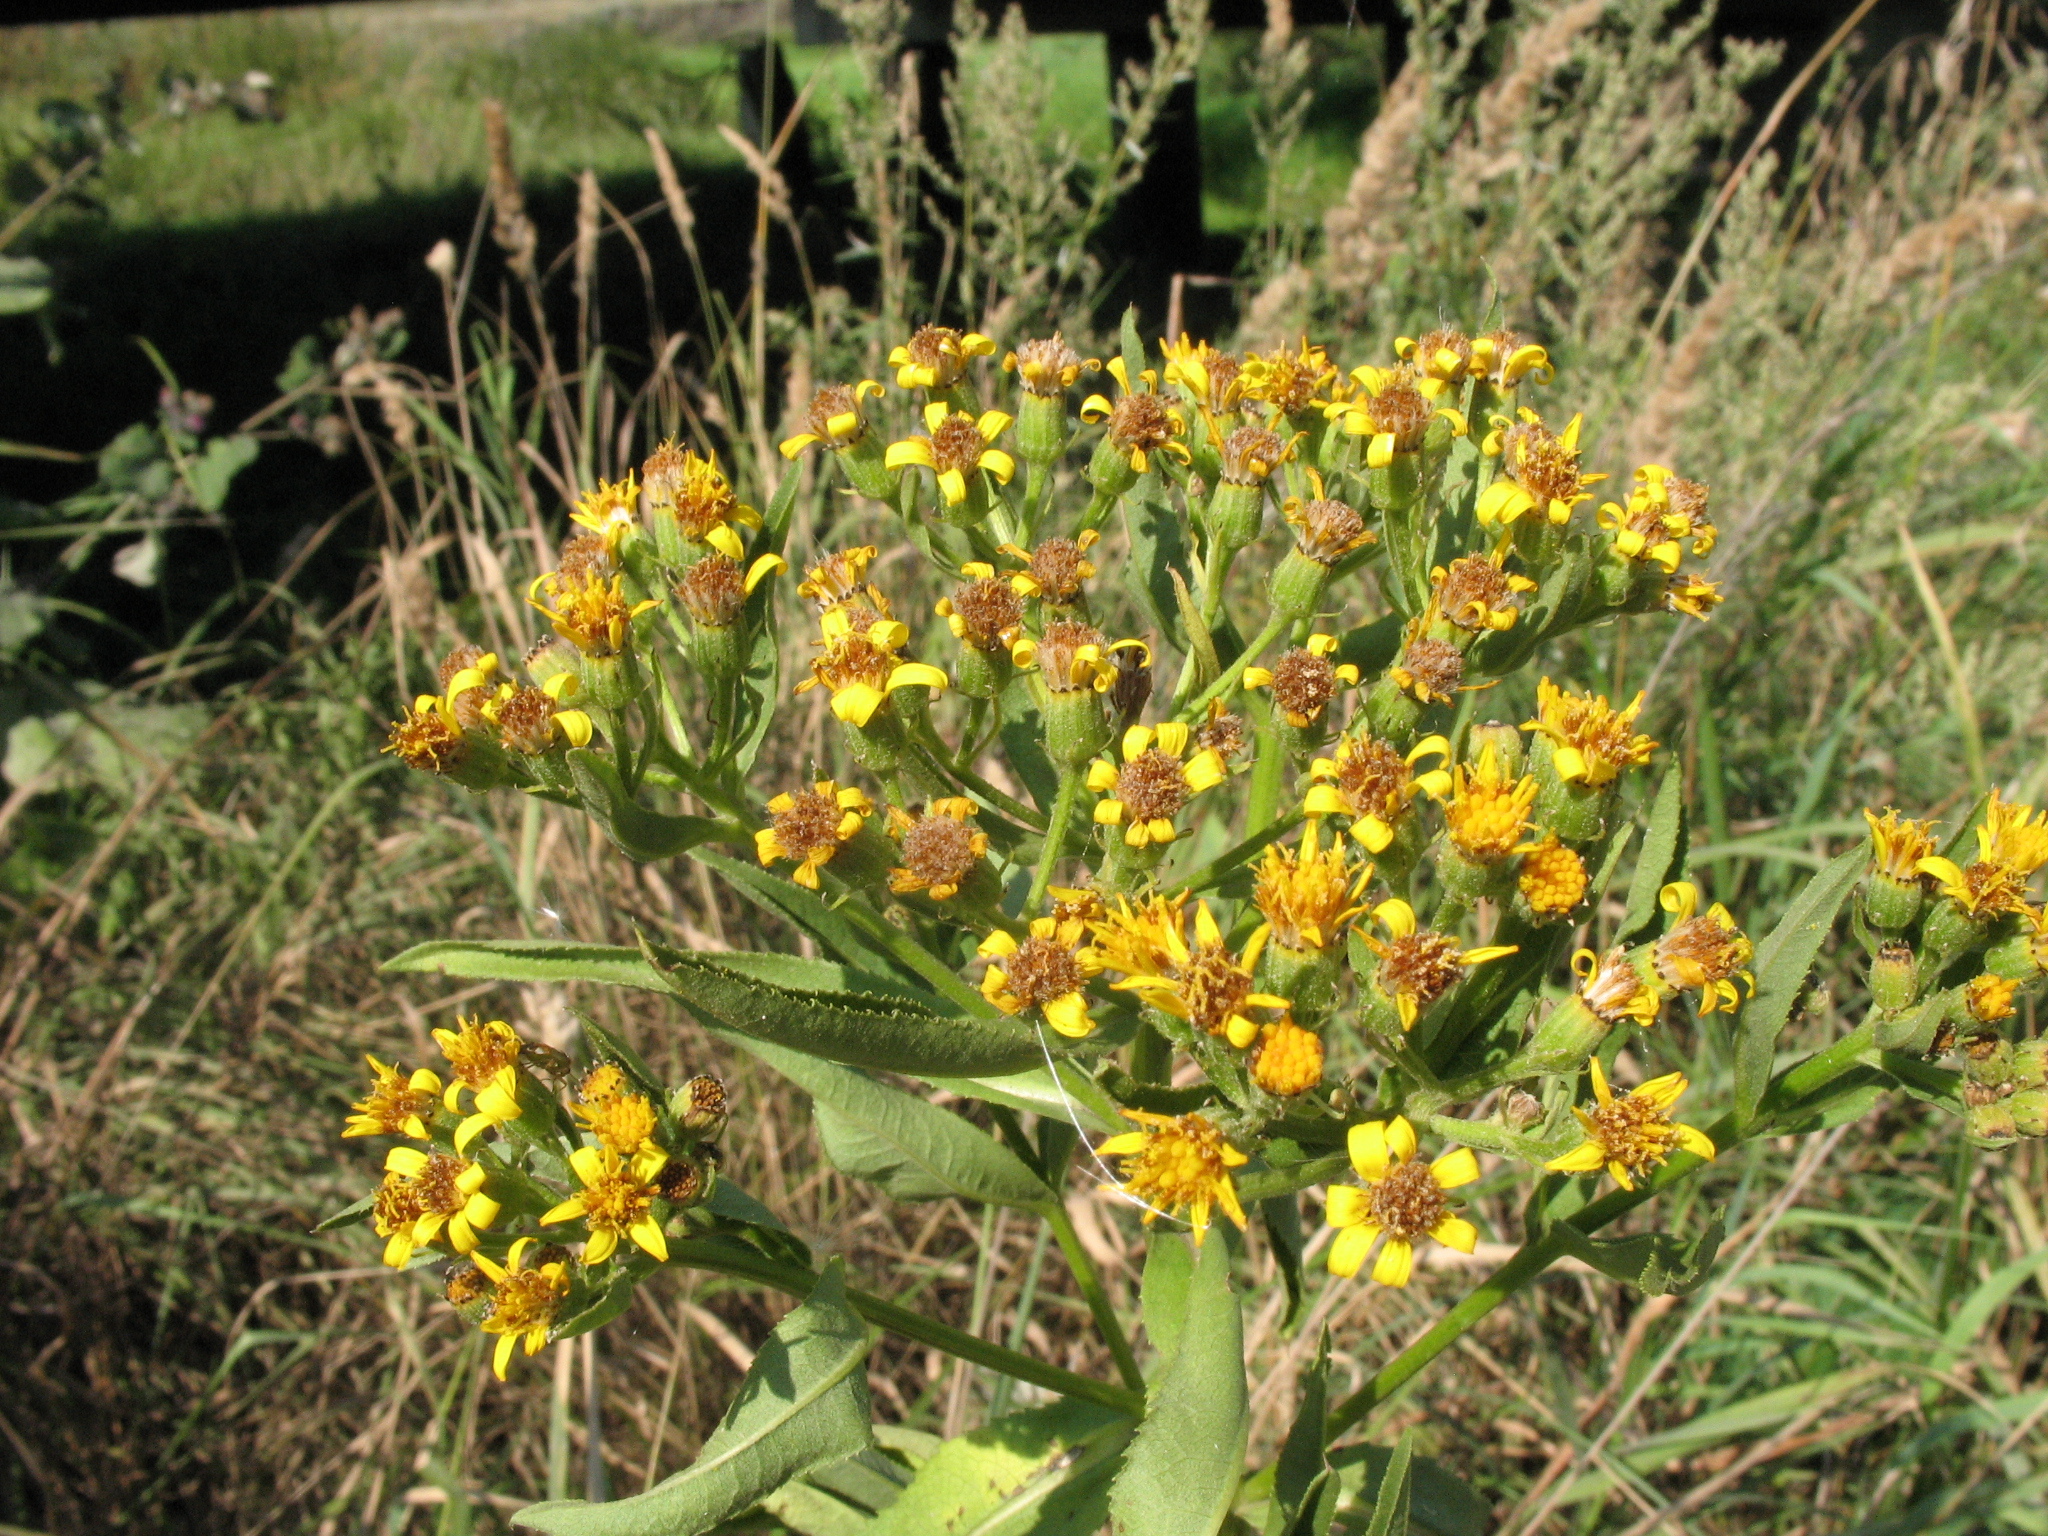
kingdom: Plantae
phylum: Tracheophyta
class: Magnoliopsida
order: Asterales
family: Asteraceae
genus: Senecio
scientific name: Senecio sarracenicus
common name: Broad-leaved ragwort
